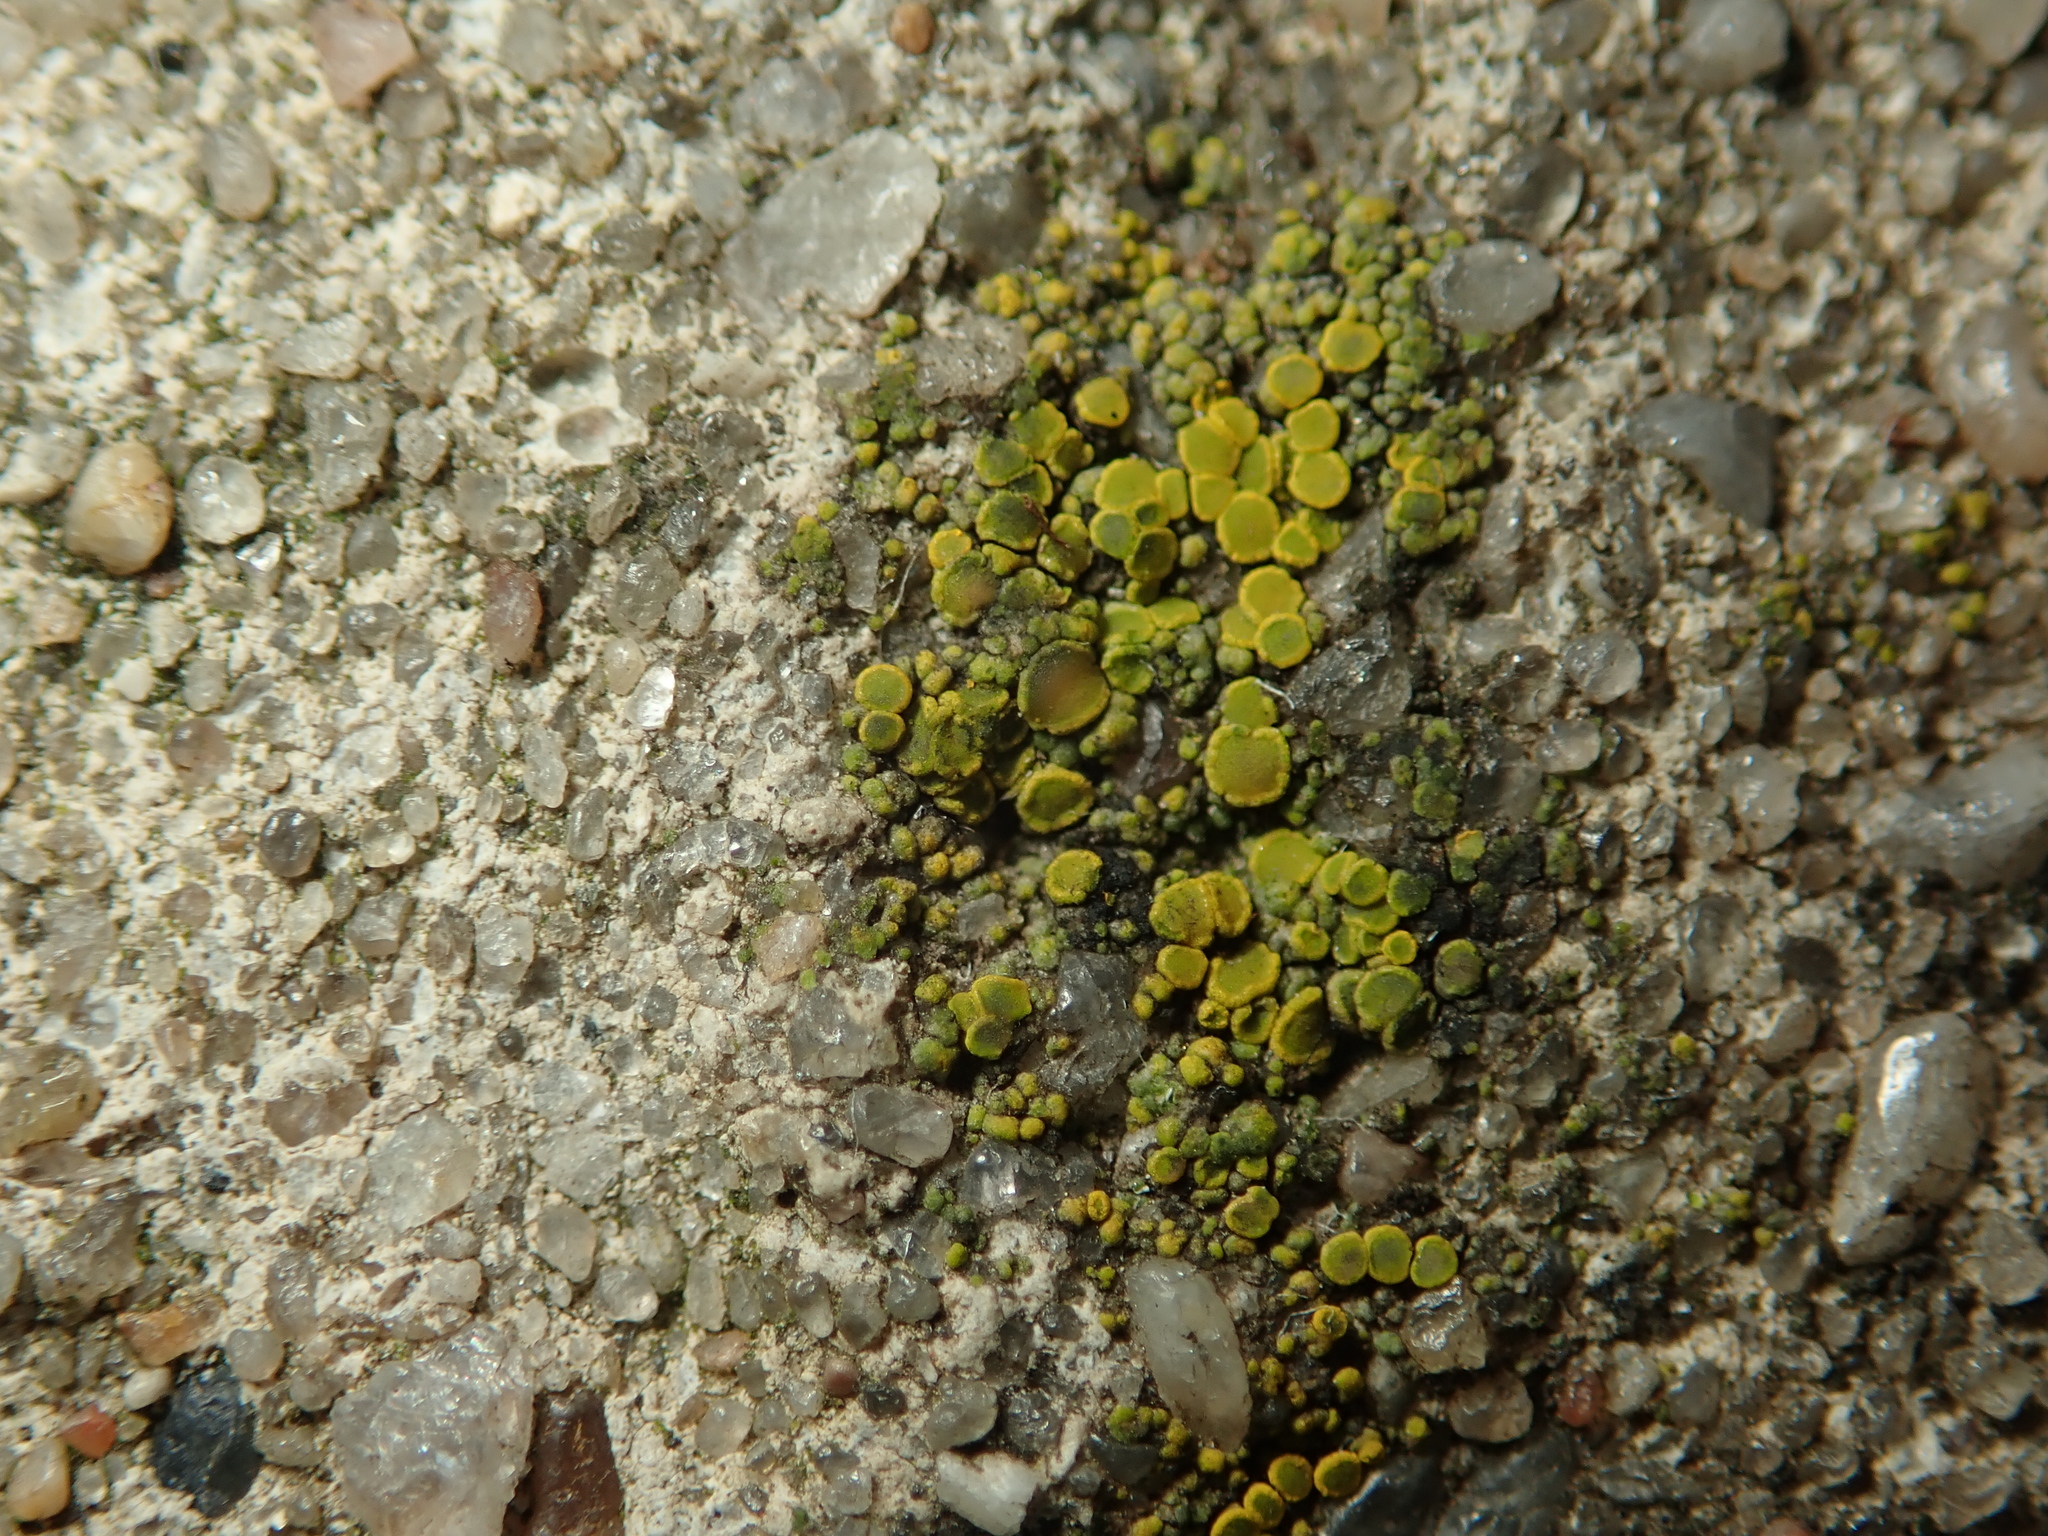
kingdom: Fungi
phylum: Ascomycota
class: Candelariomycetes
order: Candelariales
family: Candelariaceae
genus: Candelariella
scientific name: Candelariella vitellina
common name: Common goldspeck
